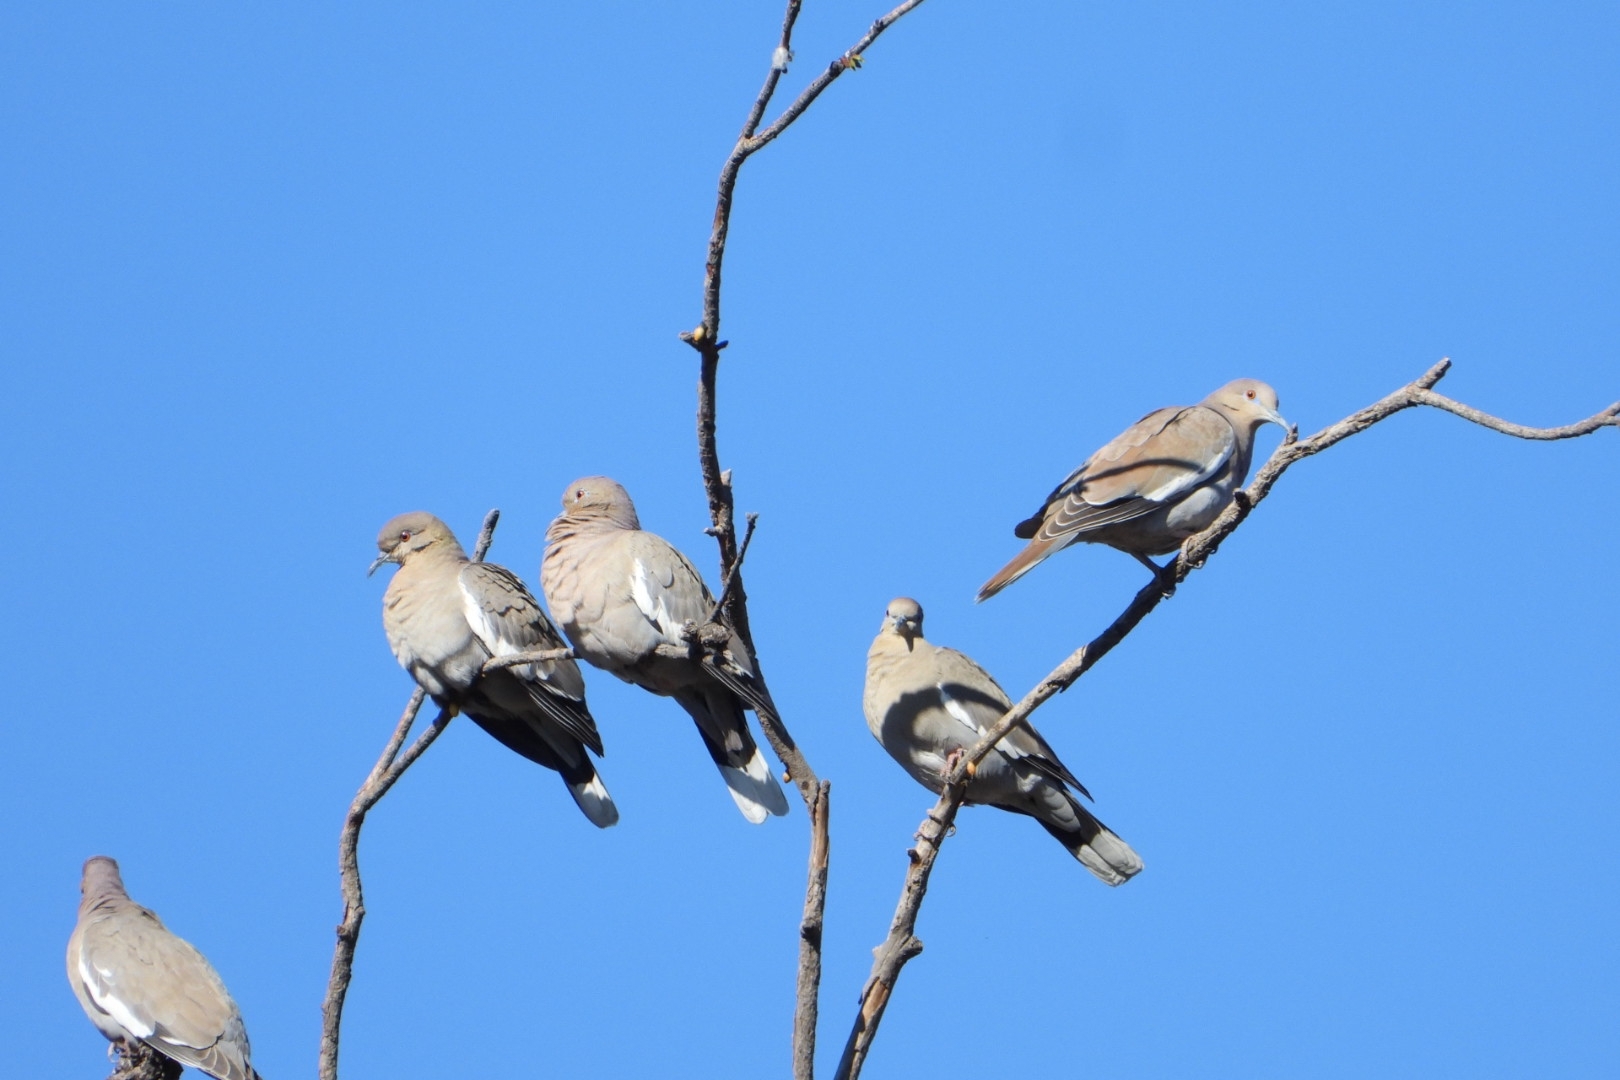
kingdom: Animalia
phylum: Chordata
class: Aves
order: Columbiformes
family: Columbidae
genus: Zenaida
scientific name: Zenaida asiatica
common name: White-winged dove
